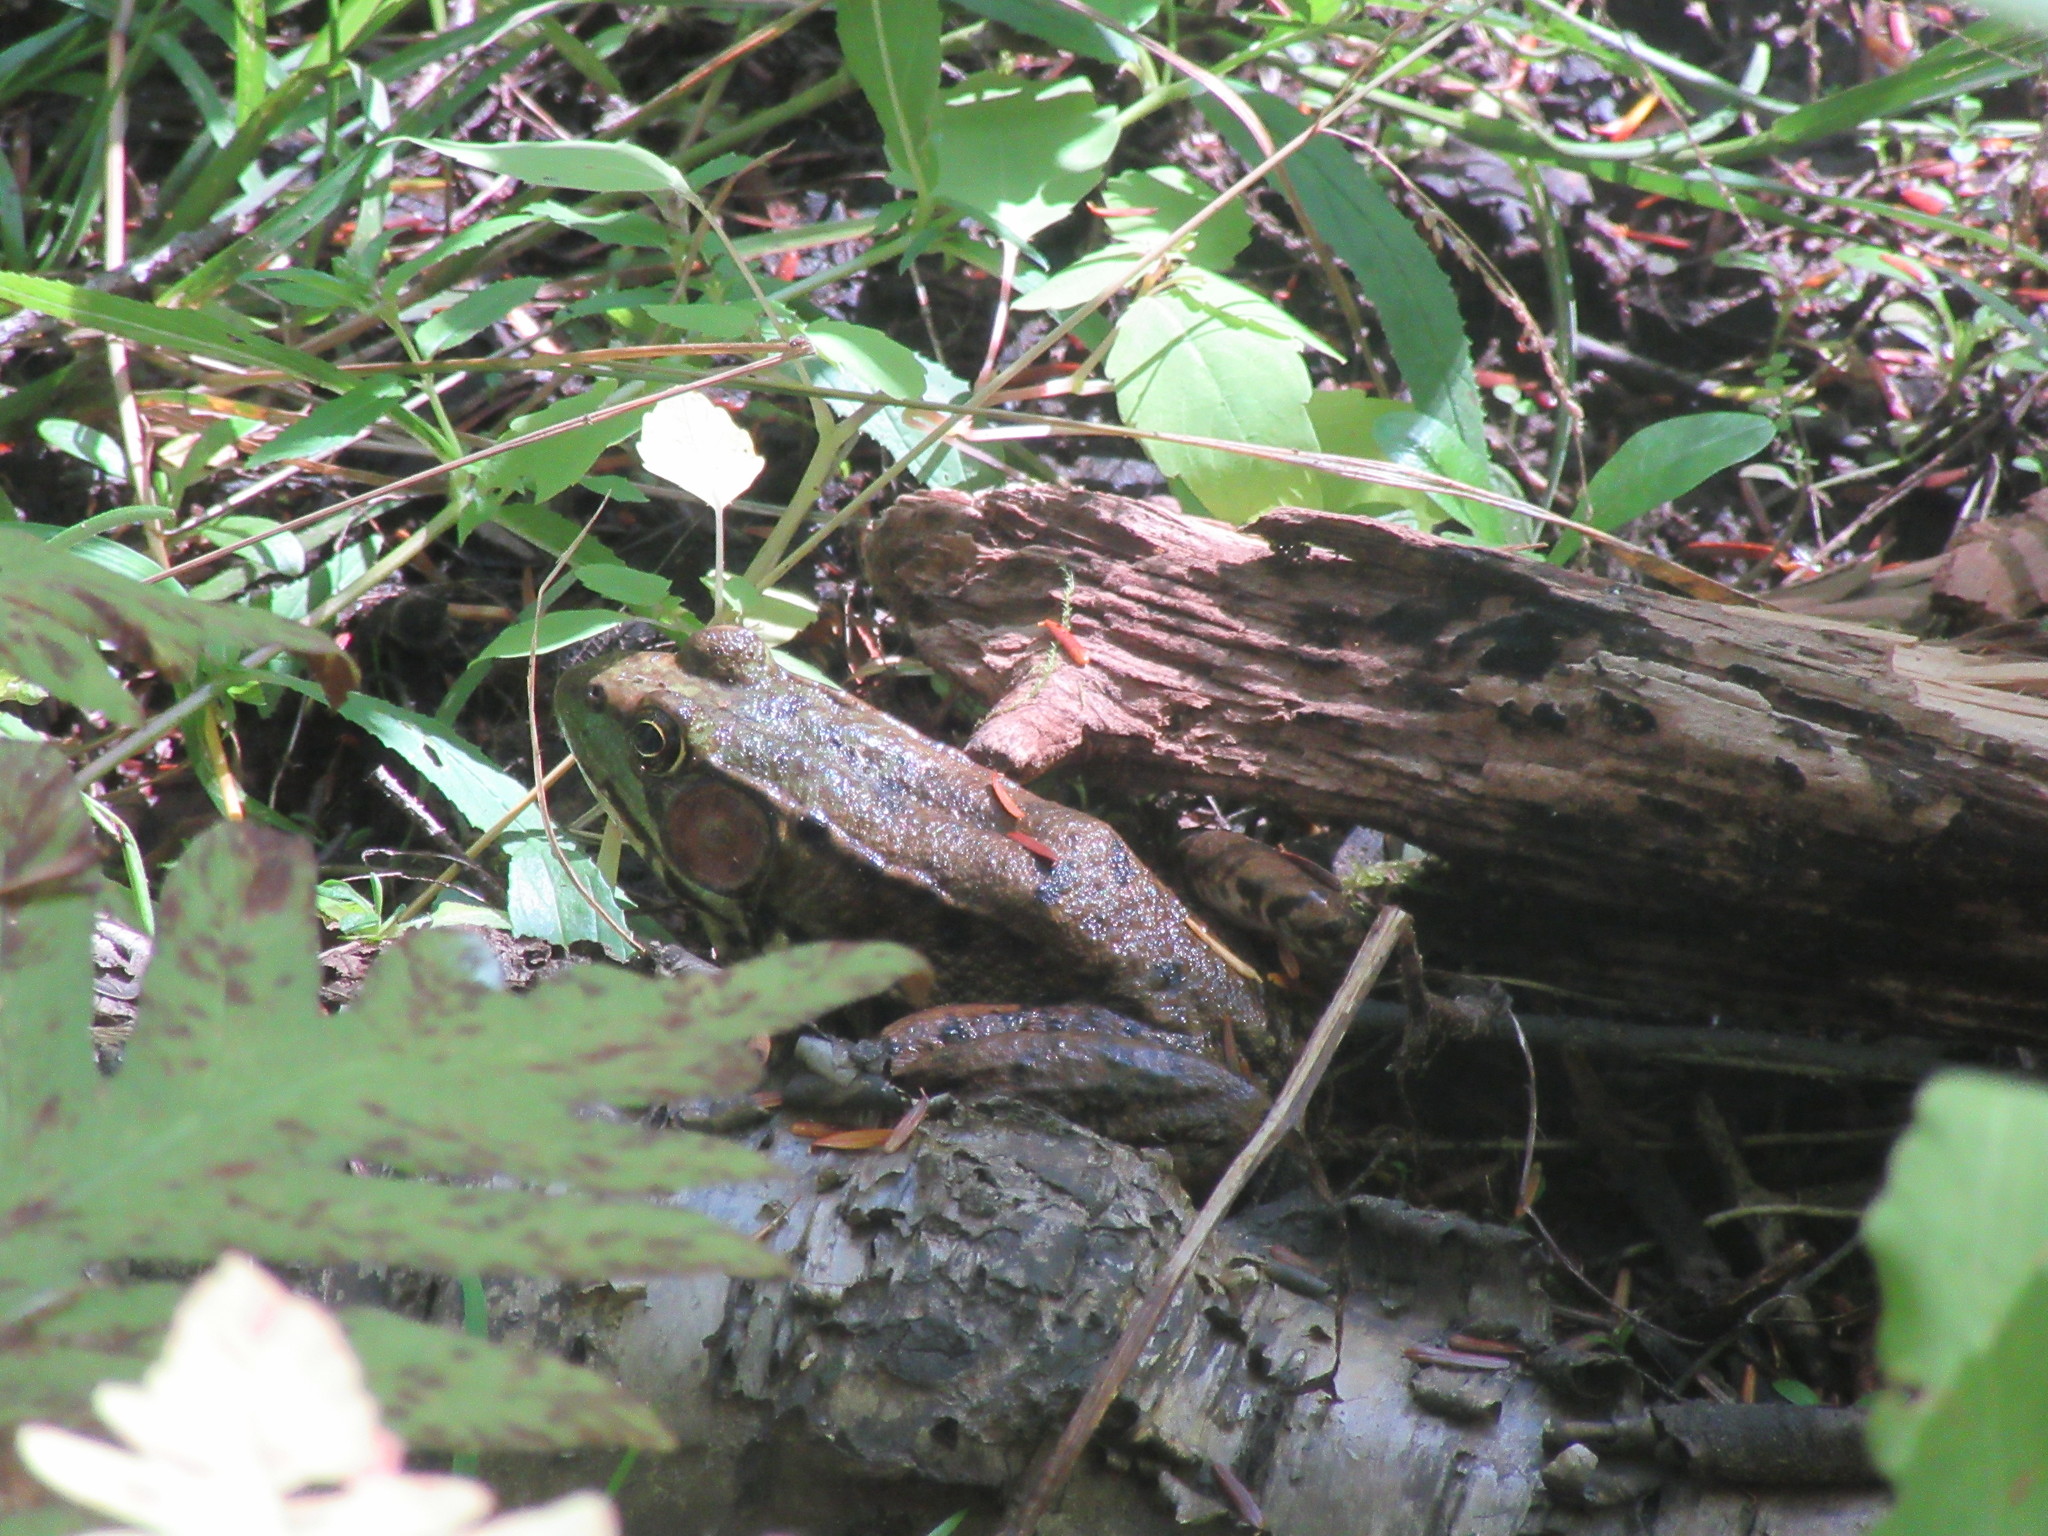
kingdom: Animalia
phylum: Chordata
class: Amphibia
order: Anura
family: Ranidae
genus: Lithobates
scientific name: Lithobates clamitans
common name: Green frog
